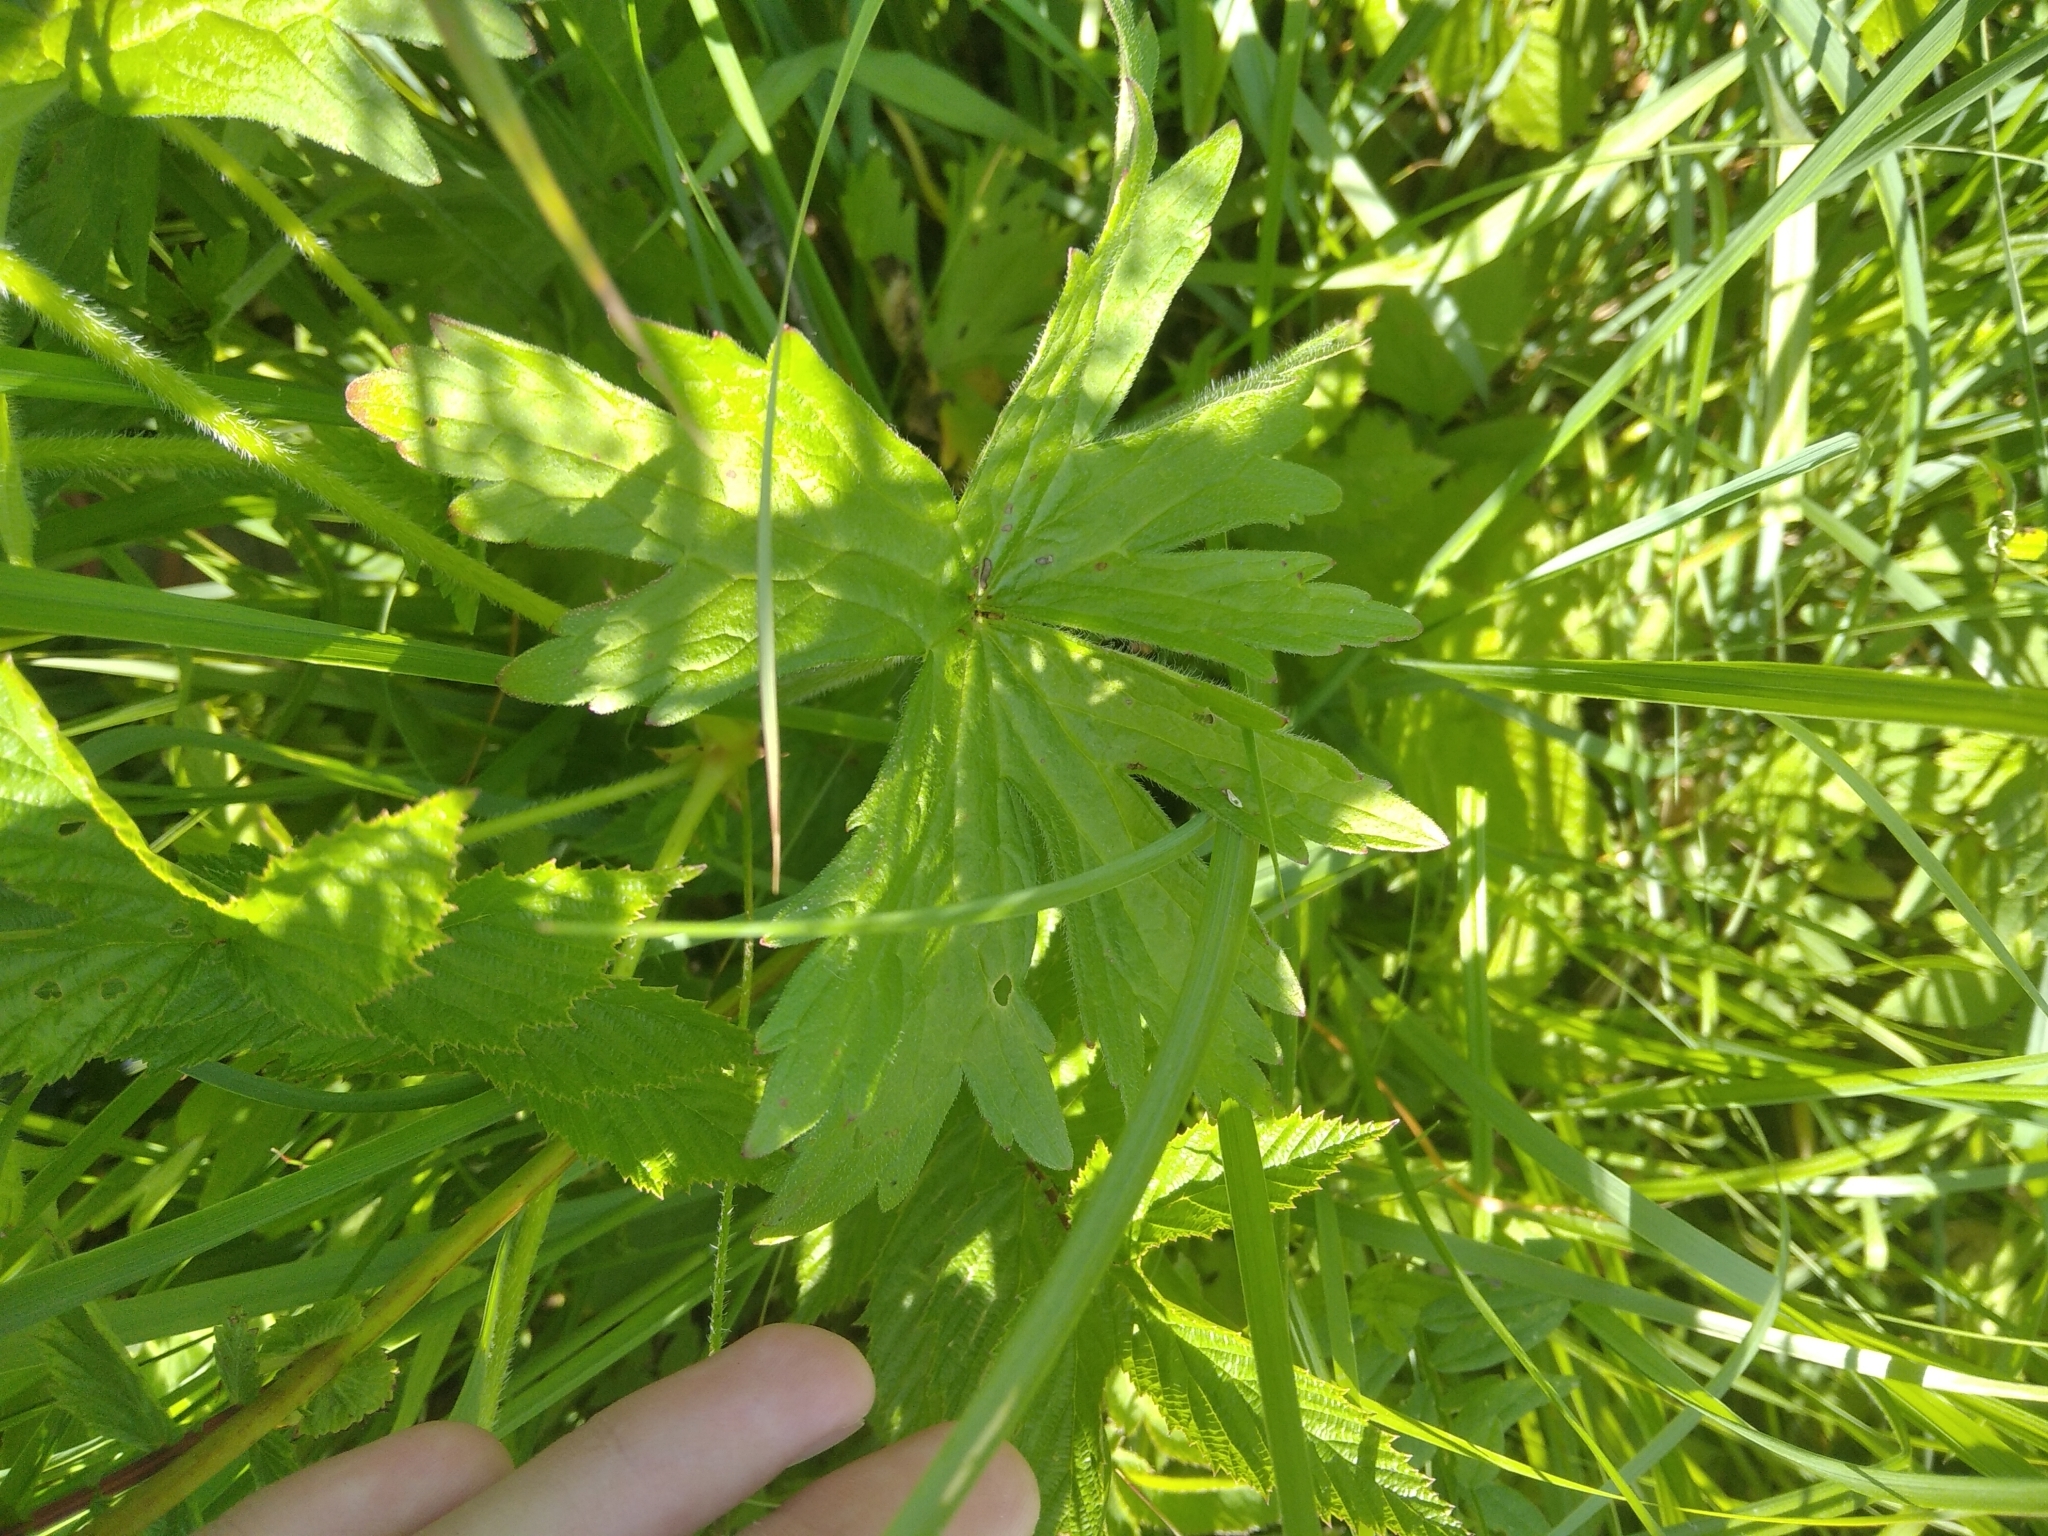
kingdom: Plantae
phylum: Tracheophyta
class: Magnoliopsida
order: Geraniales
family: Geraniaceae
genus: Geranium
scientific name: Geranium palustre
